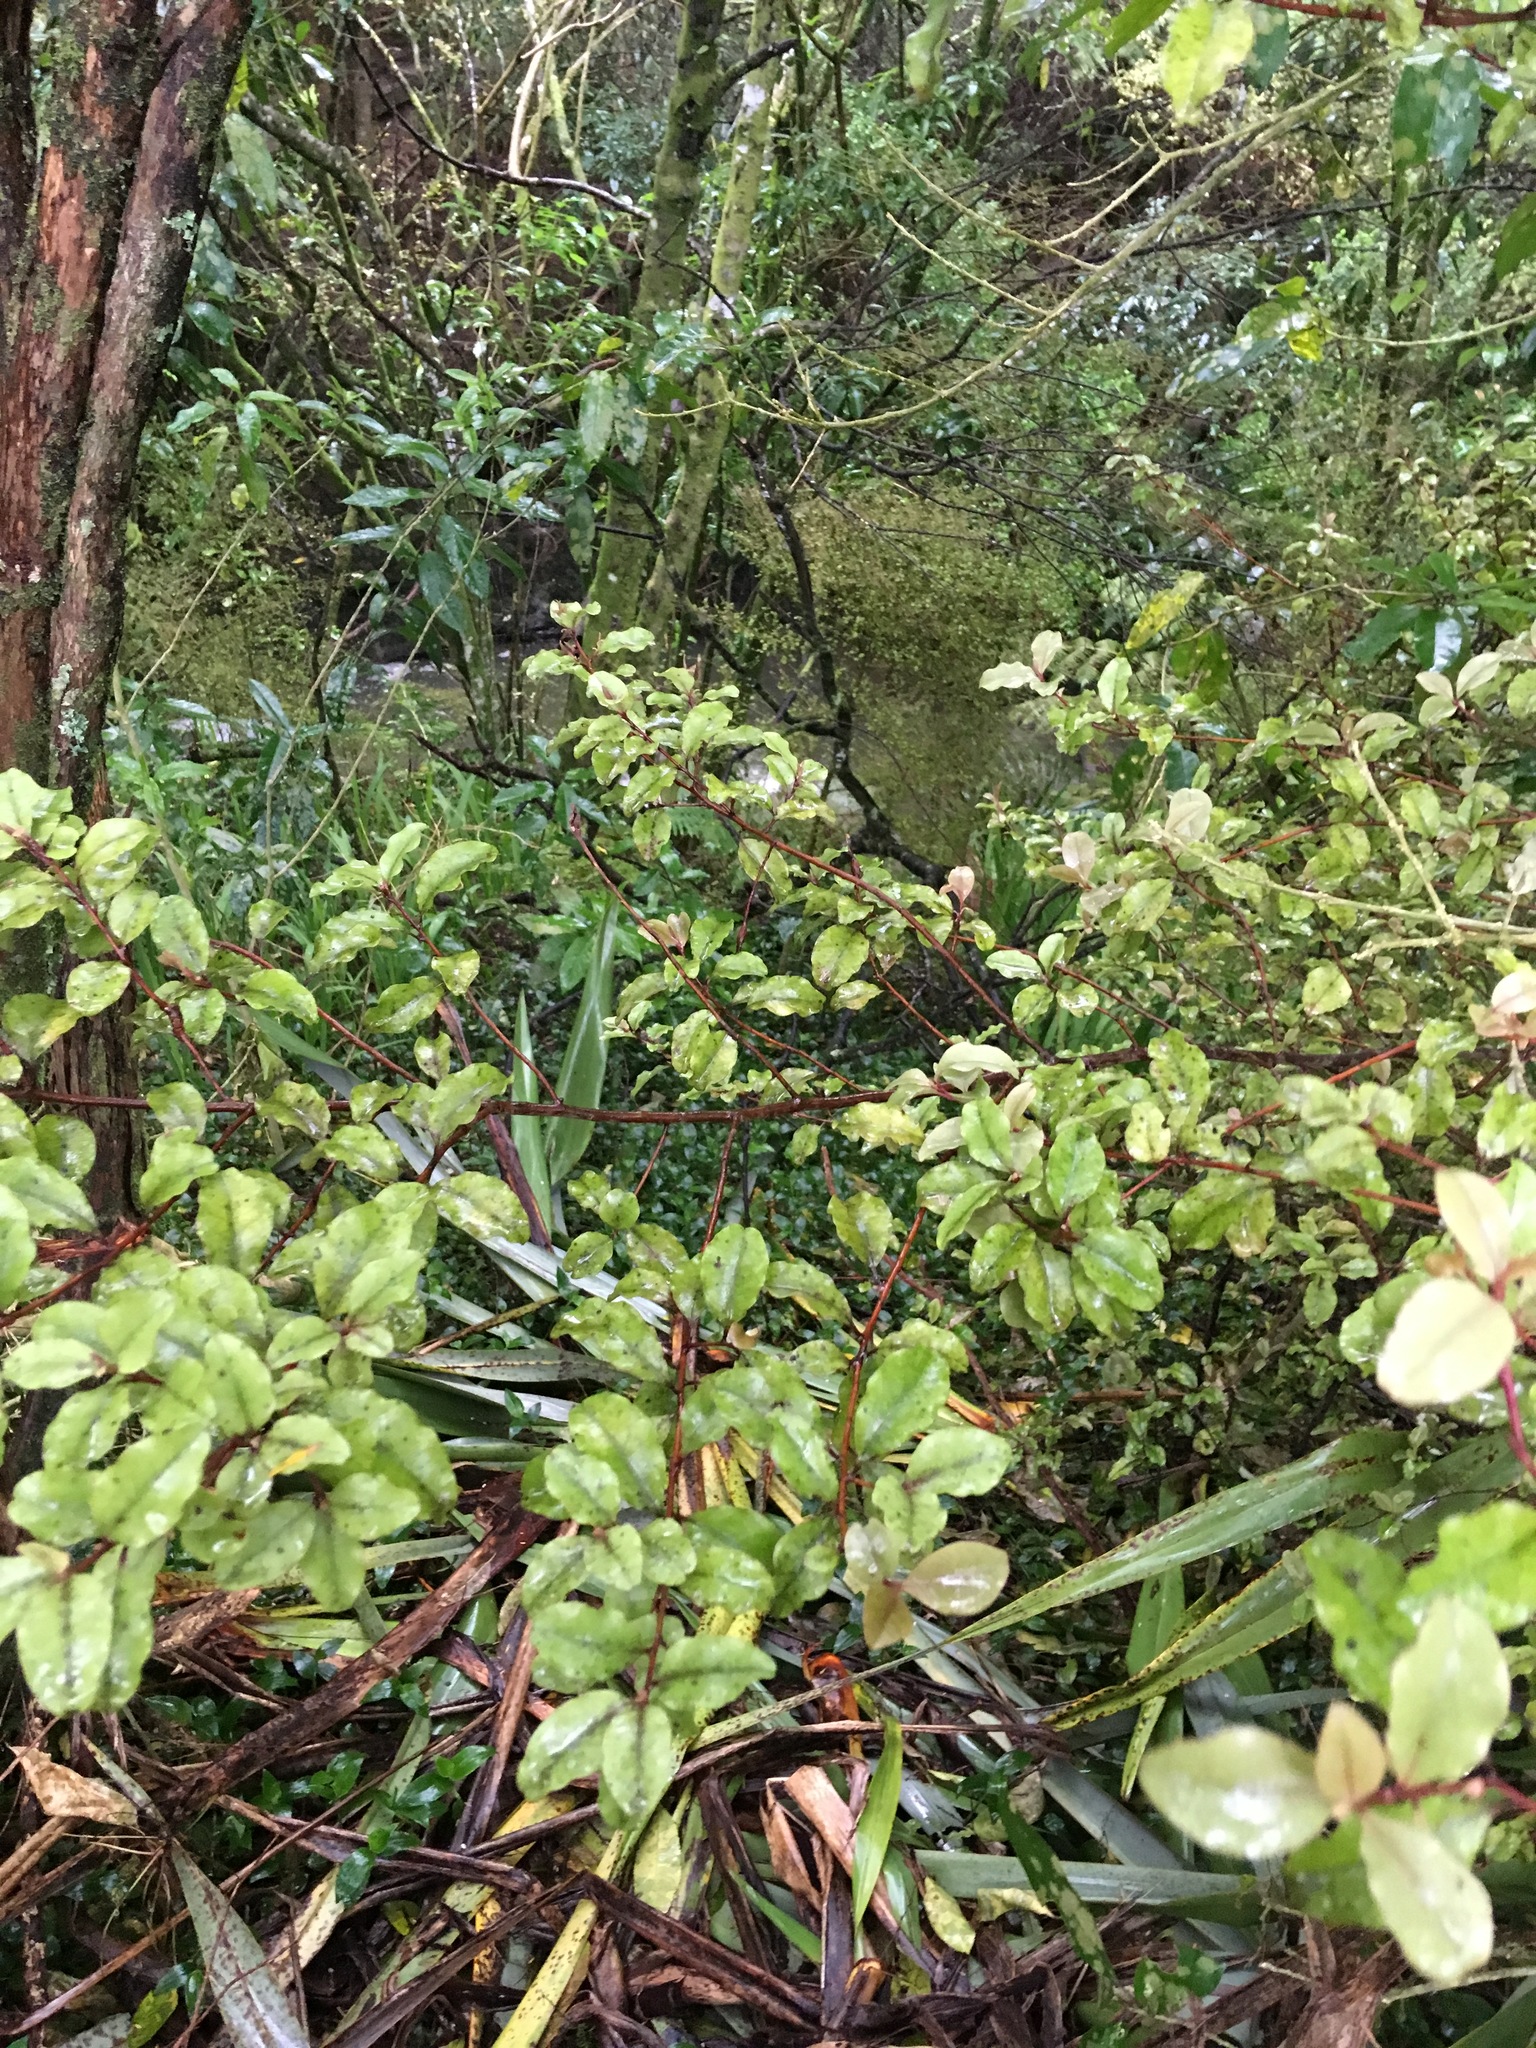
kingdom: Plantae
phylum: Tracheophyta
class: Magnoliopsida
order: Ericales
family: Primulaceae
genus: Myrsine
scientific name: Myrsine australis
